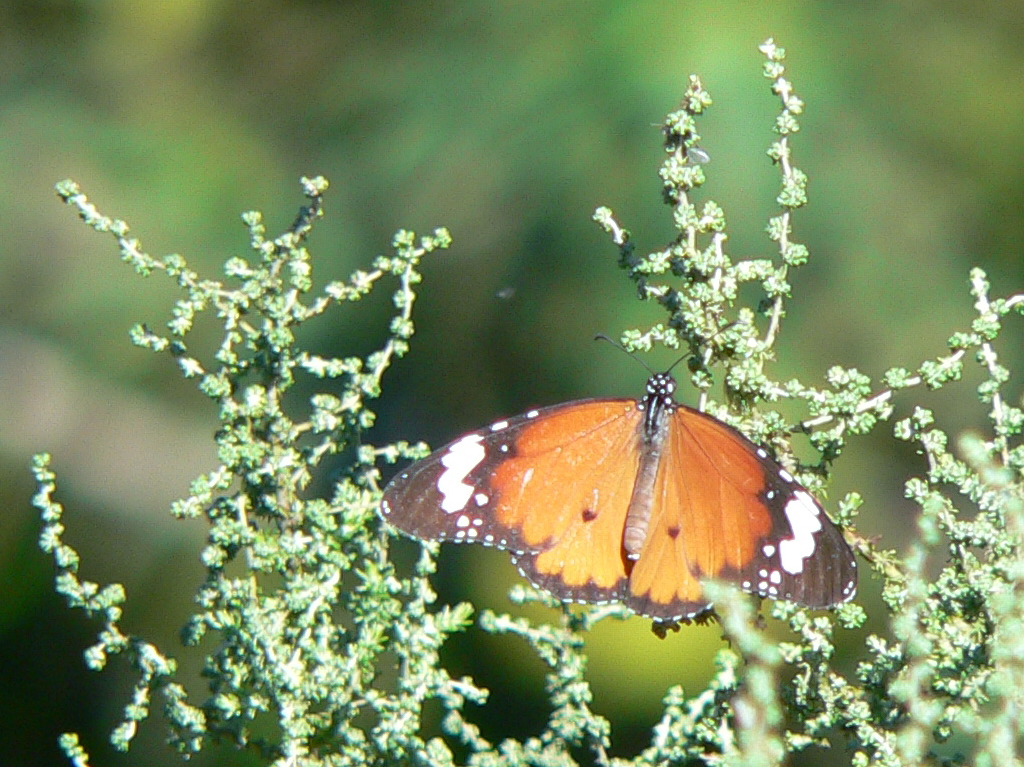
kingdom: Animalia
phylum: Arthropoda
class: Insecta
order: Lepidoptera
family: Nymphalidae
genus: Danaus
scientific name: Danaus chrysippus
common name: Plain tiger
